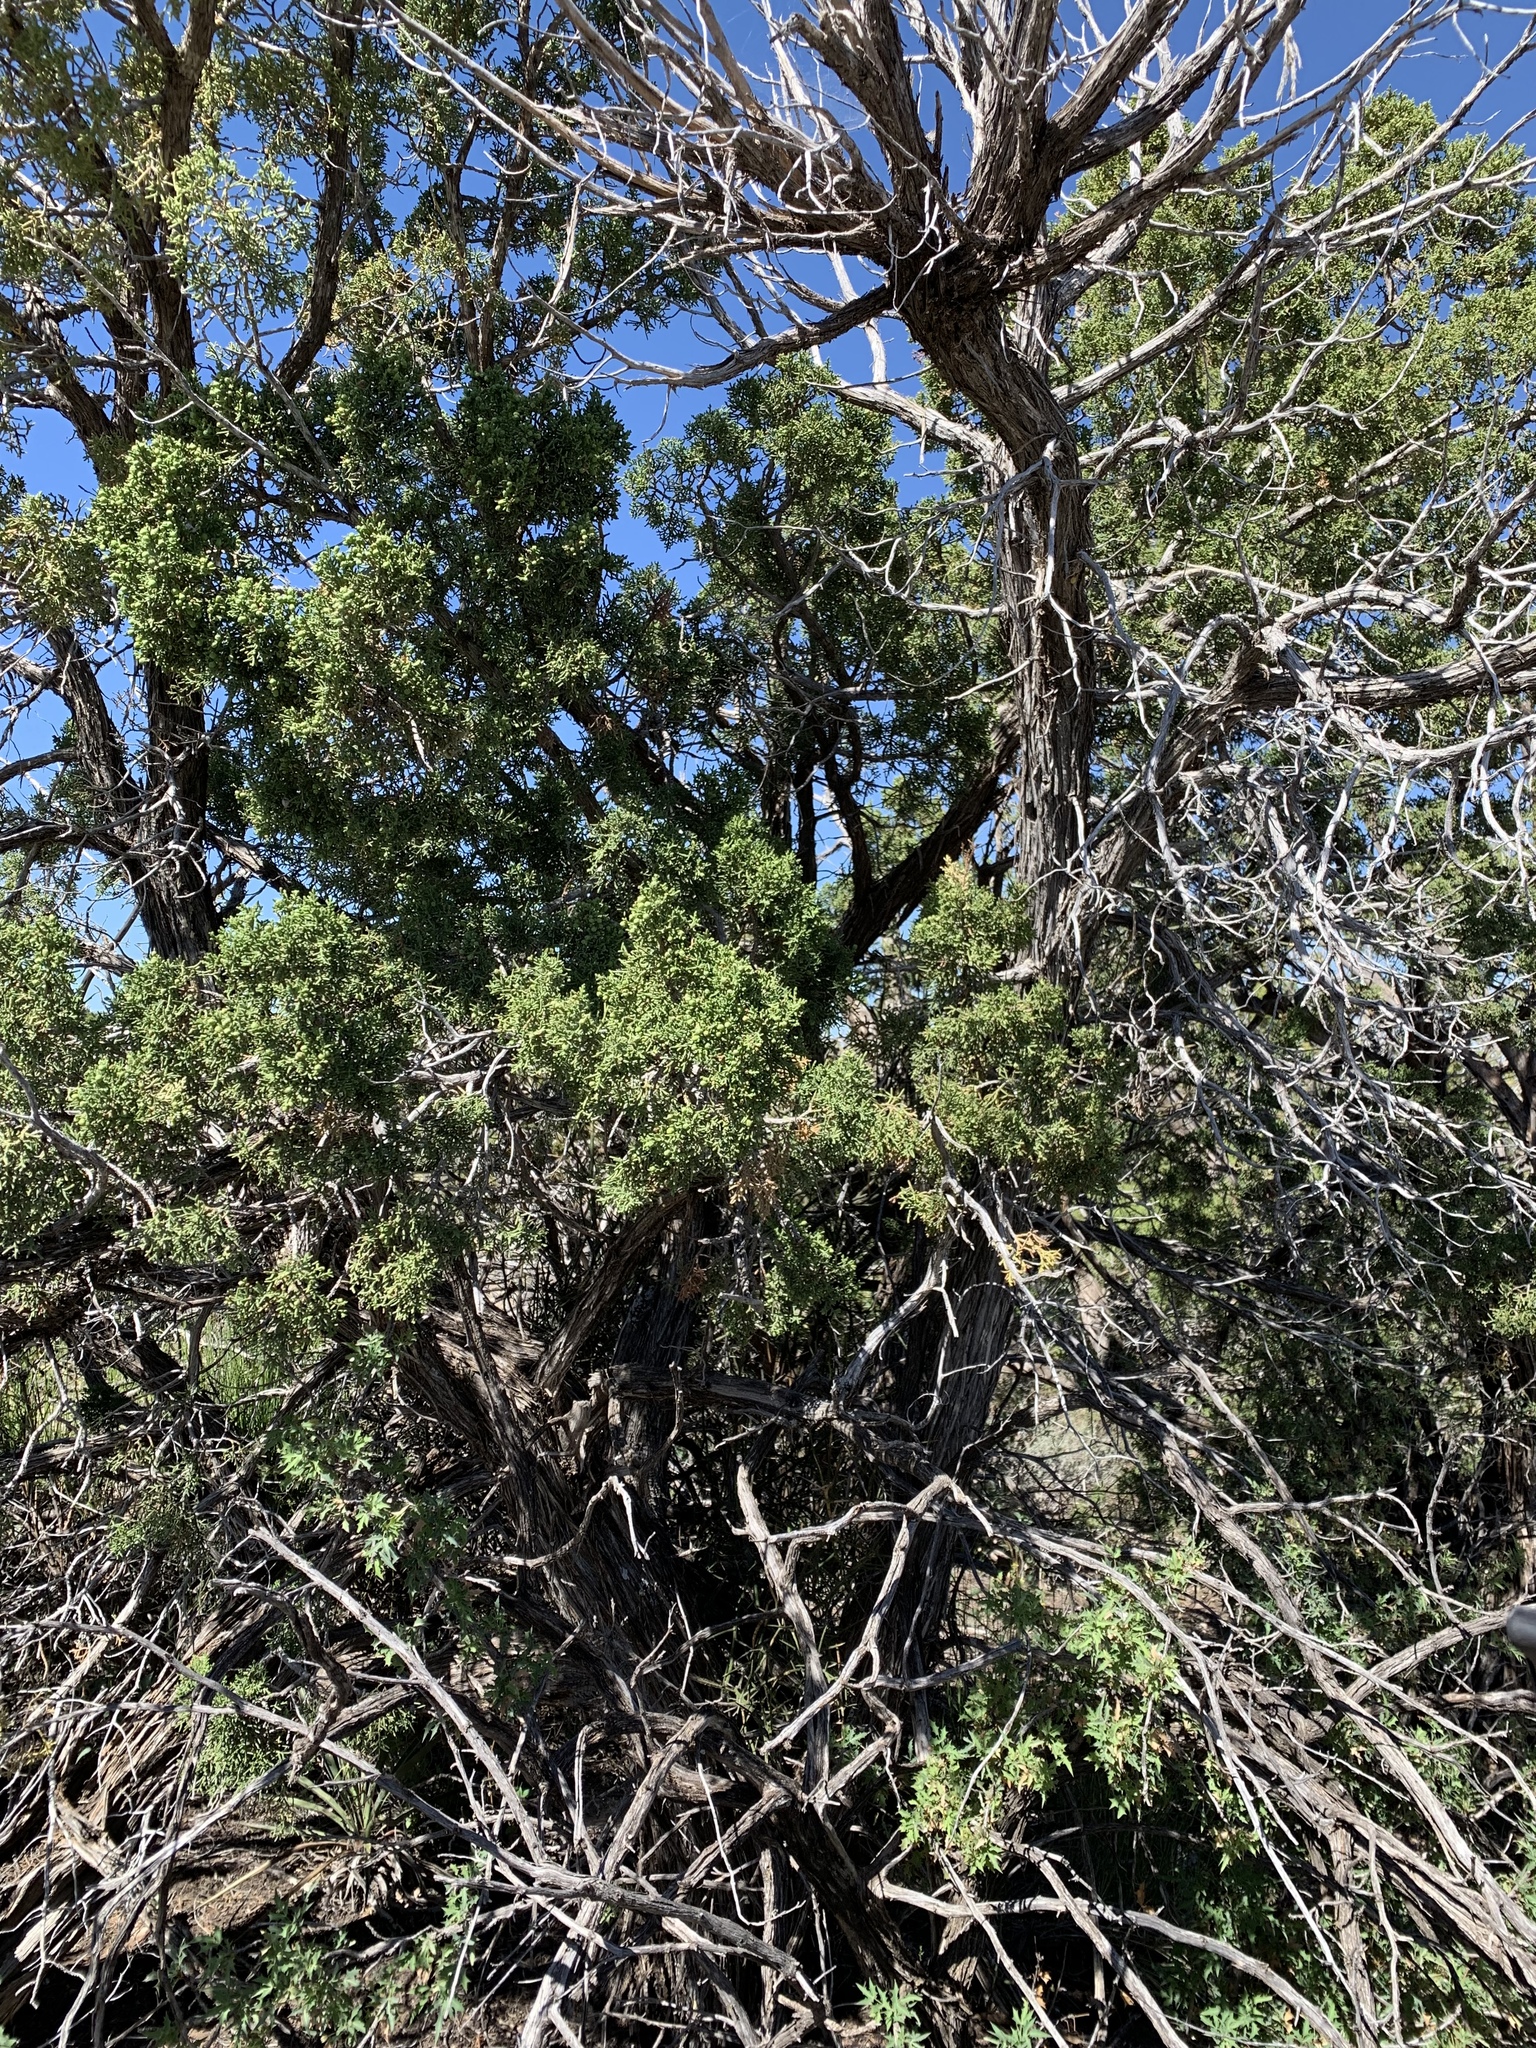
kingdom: Plantae
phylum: Tracheophyta
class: Pinopsida
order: Pinales
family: Cupressaceae
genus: Juniperus
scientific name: Juniperus monosperma
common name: One-seed juniper
